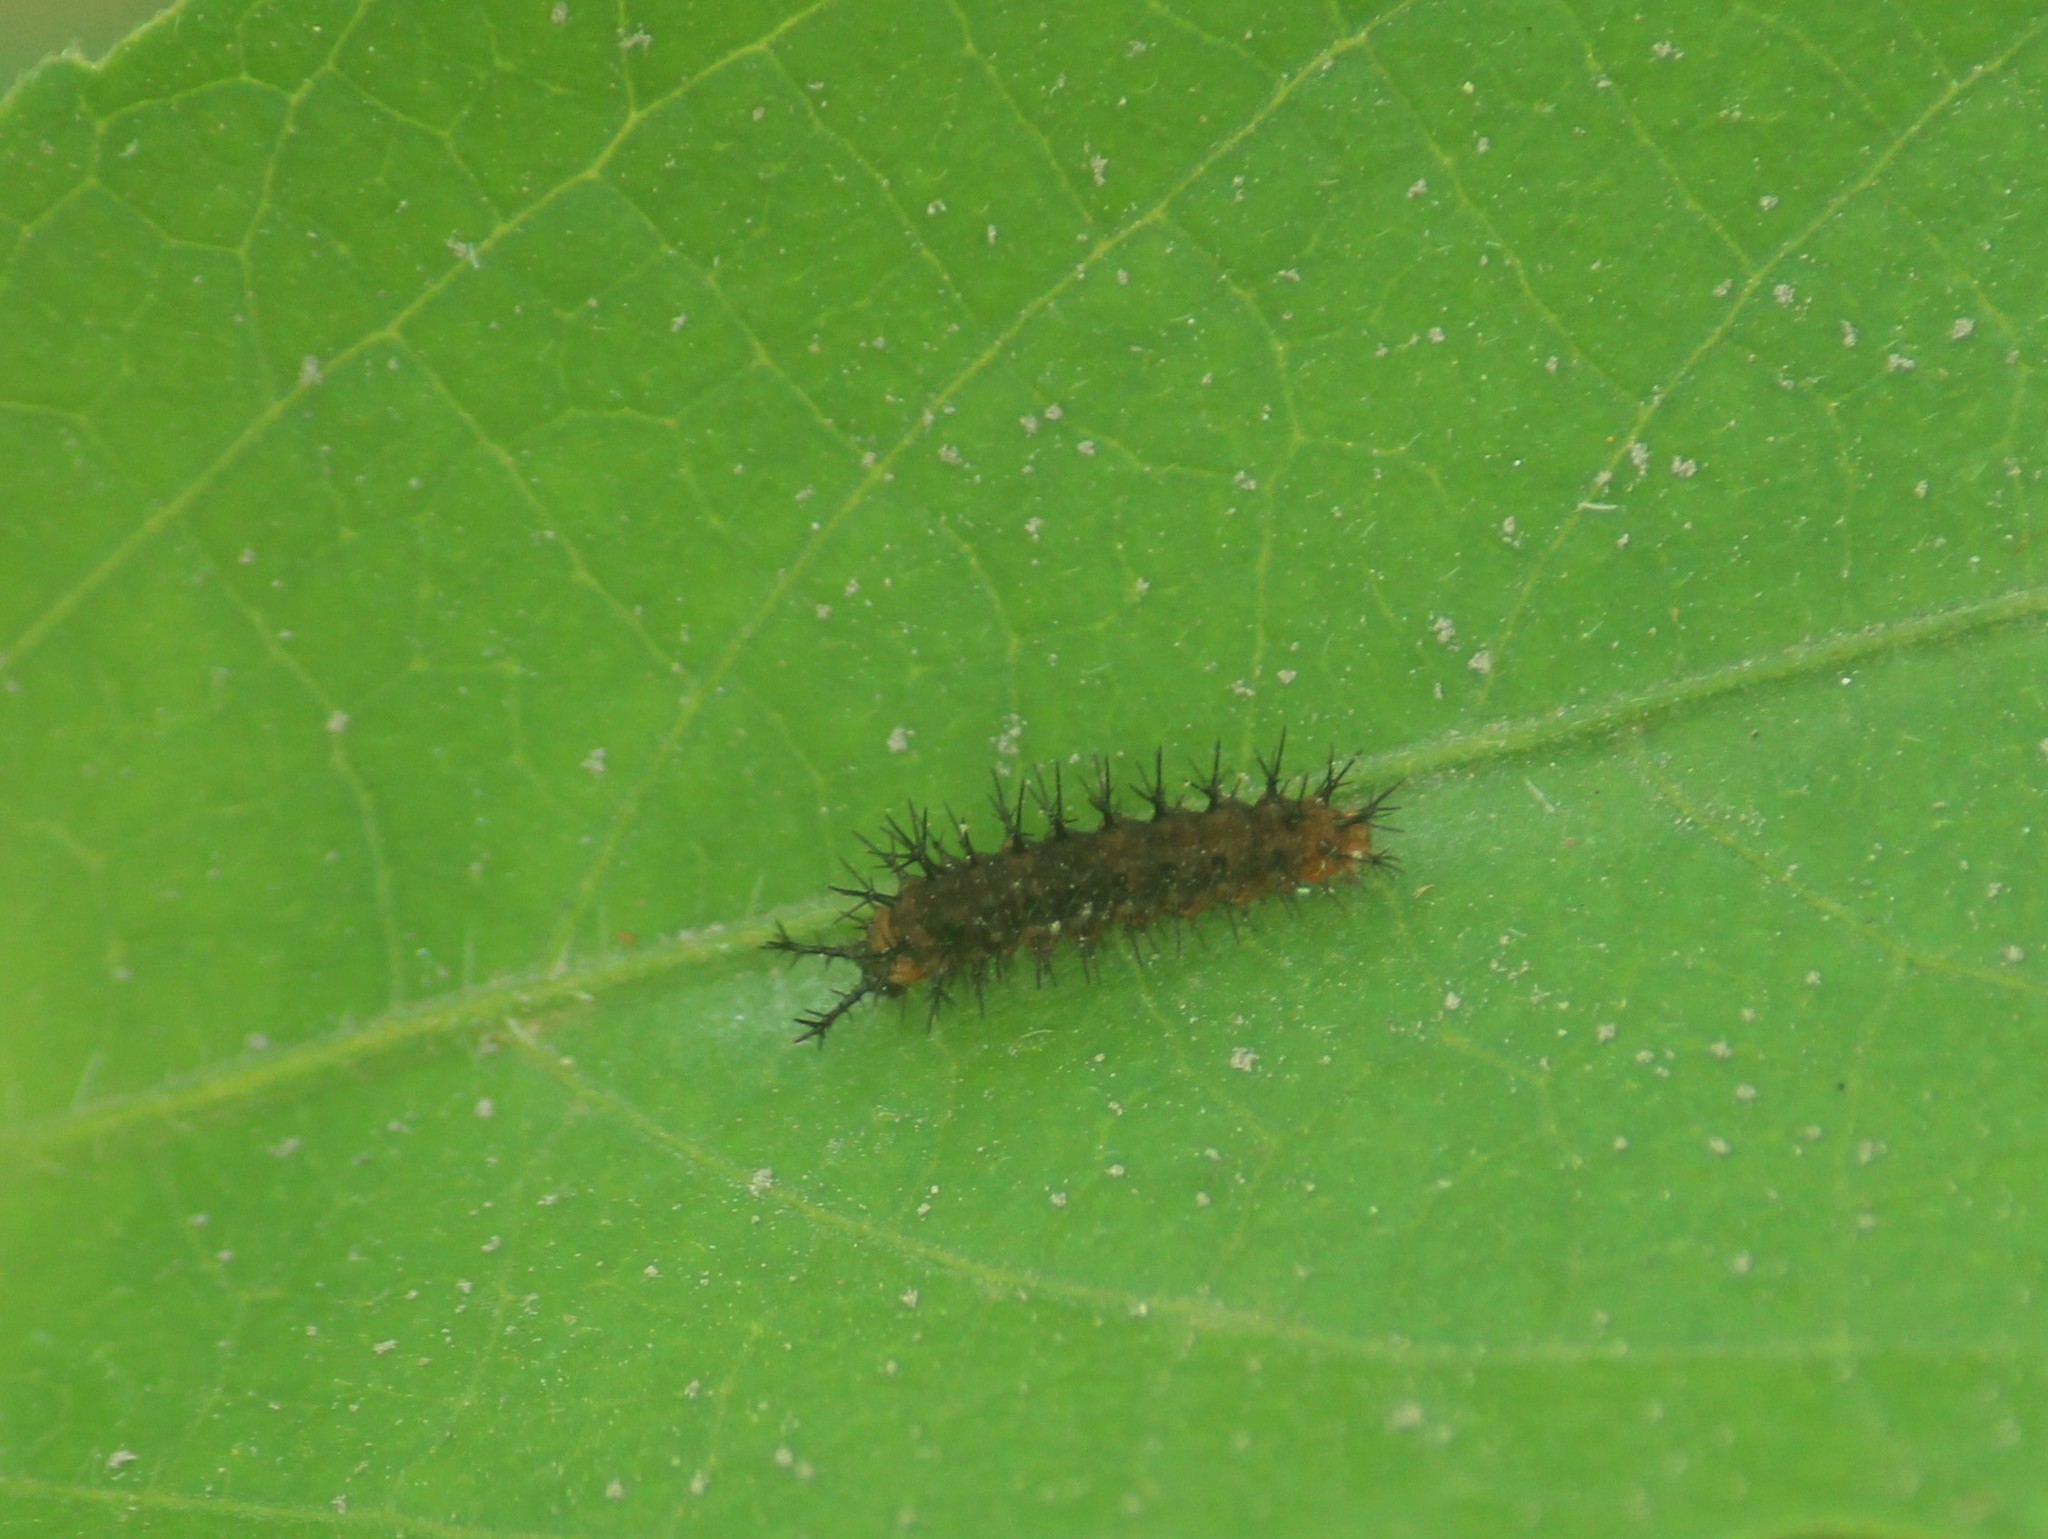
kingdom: Animalia
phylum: Arthropoda
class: Insecta
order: Lepidoptera
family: Nymphalidae
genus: Ariadne
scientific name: Ariadne ariadne
